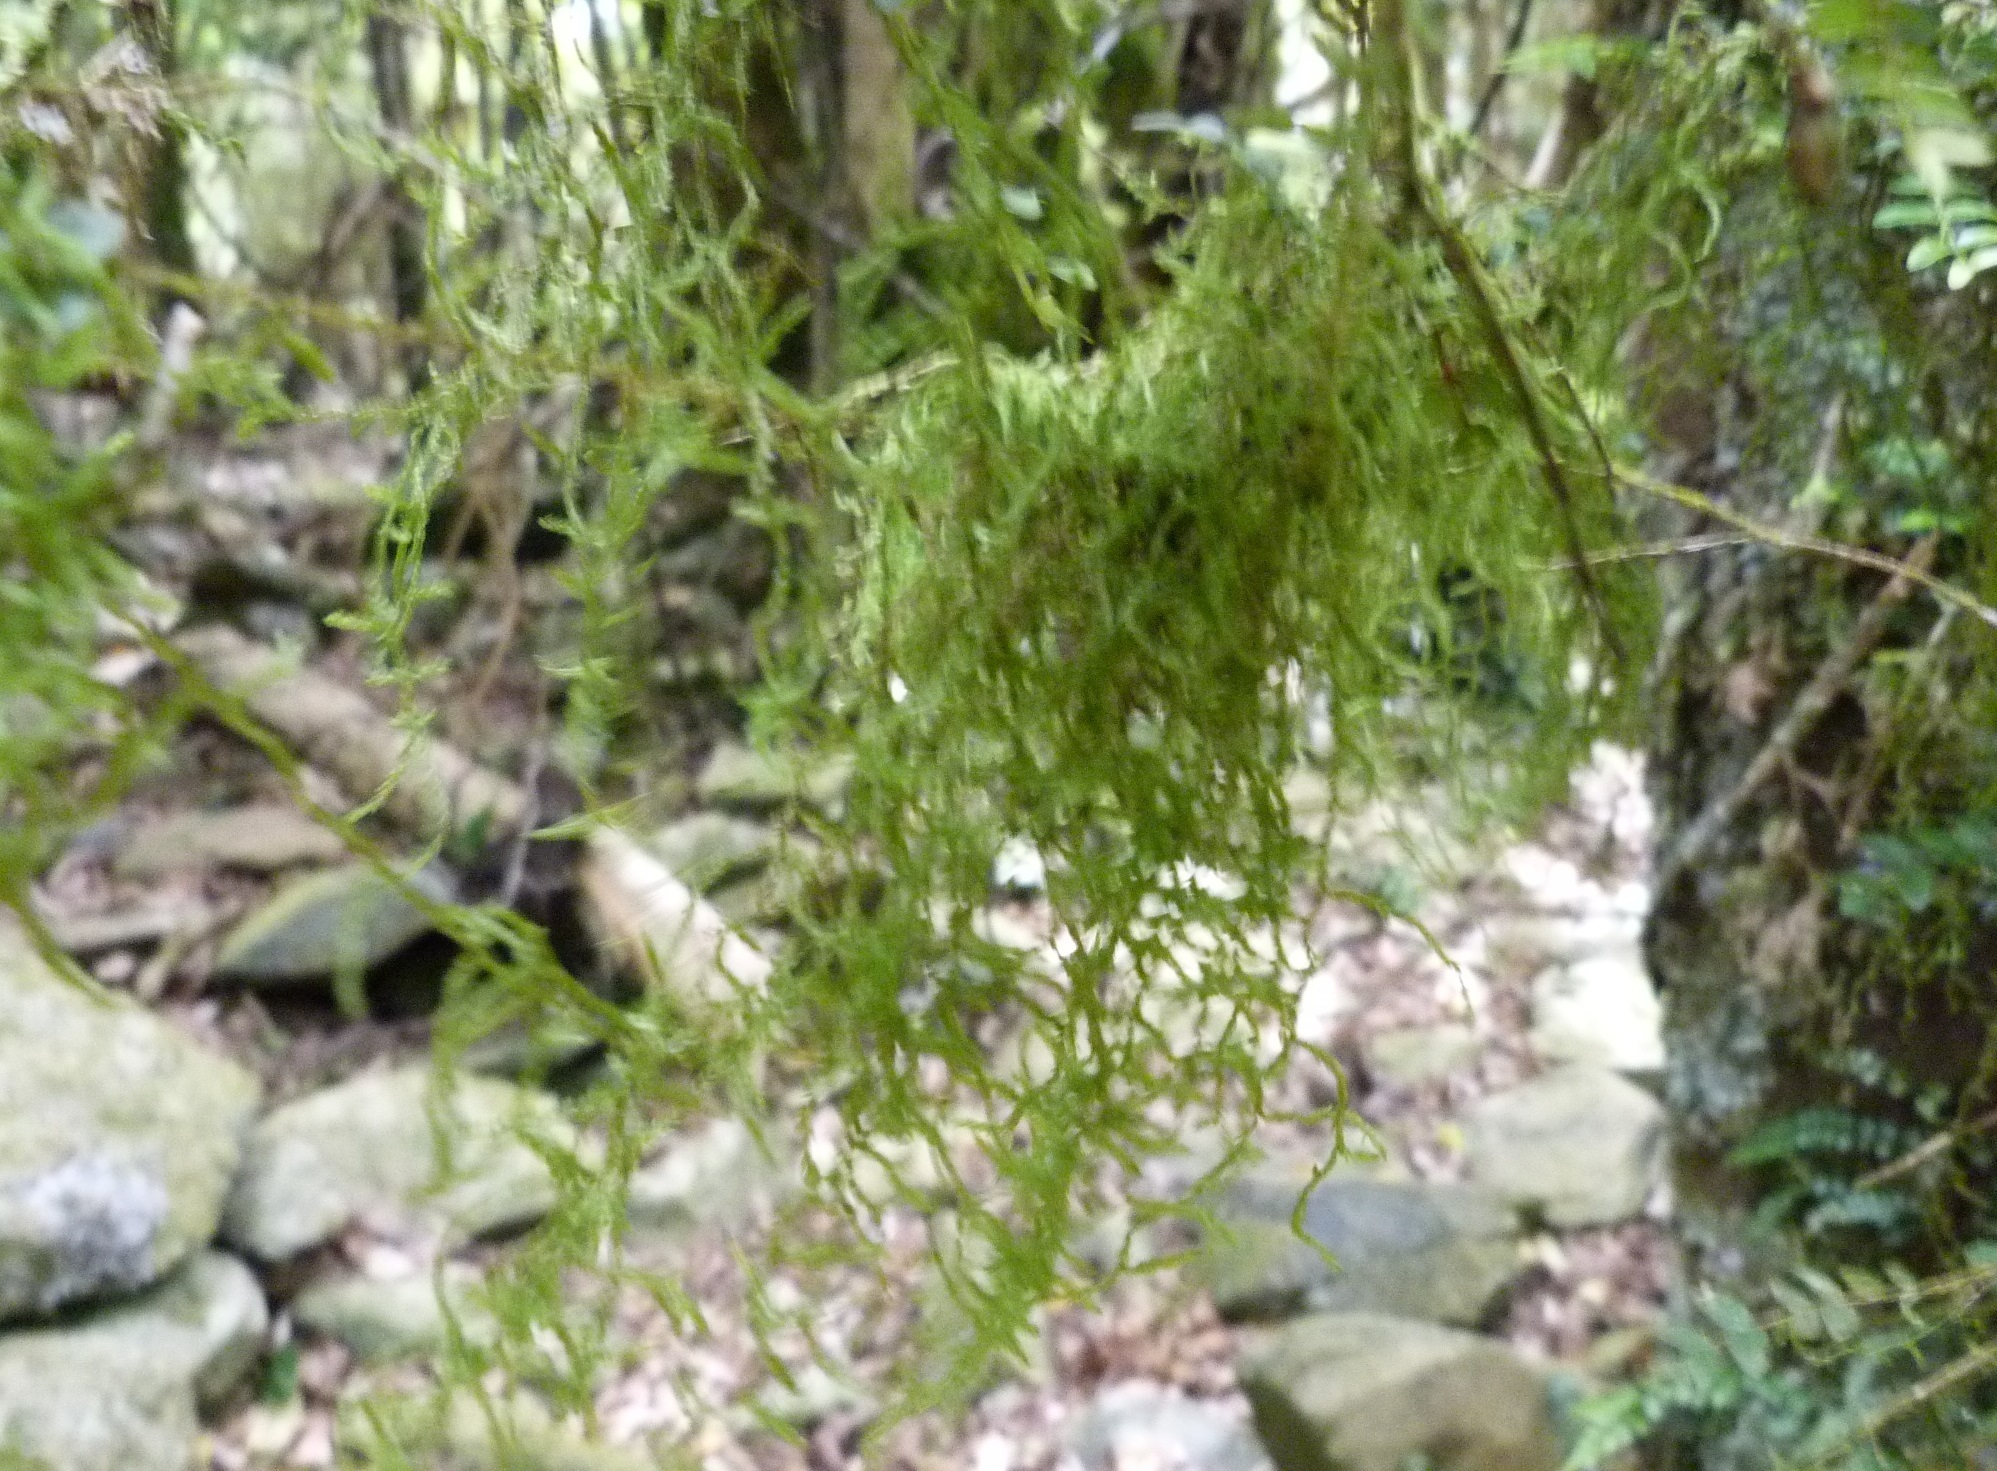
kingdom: Plantae
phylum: Bryophyta
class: Bryopsida
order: Hypnales
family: Lembophyllaceae
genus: Weymouthia
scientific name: Weymouthia mollis
